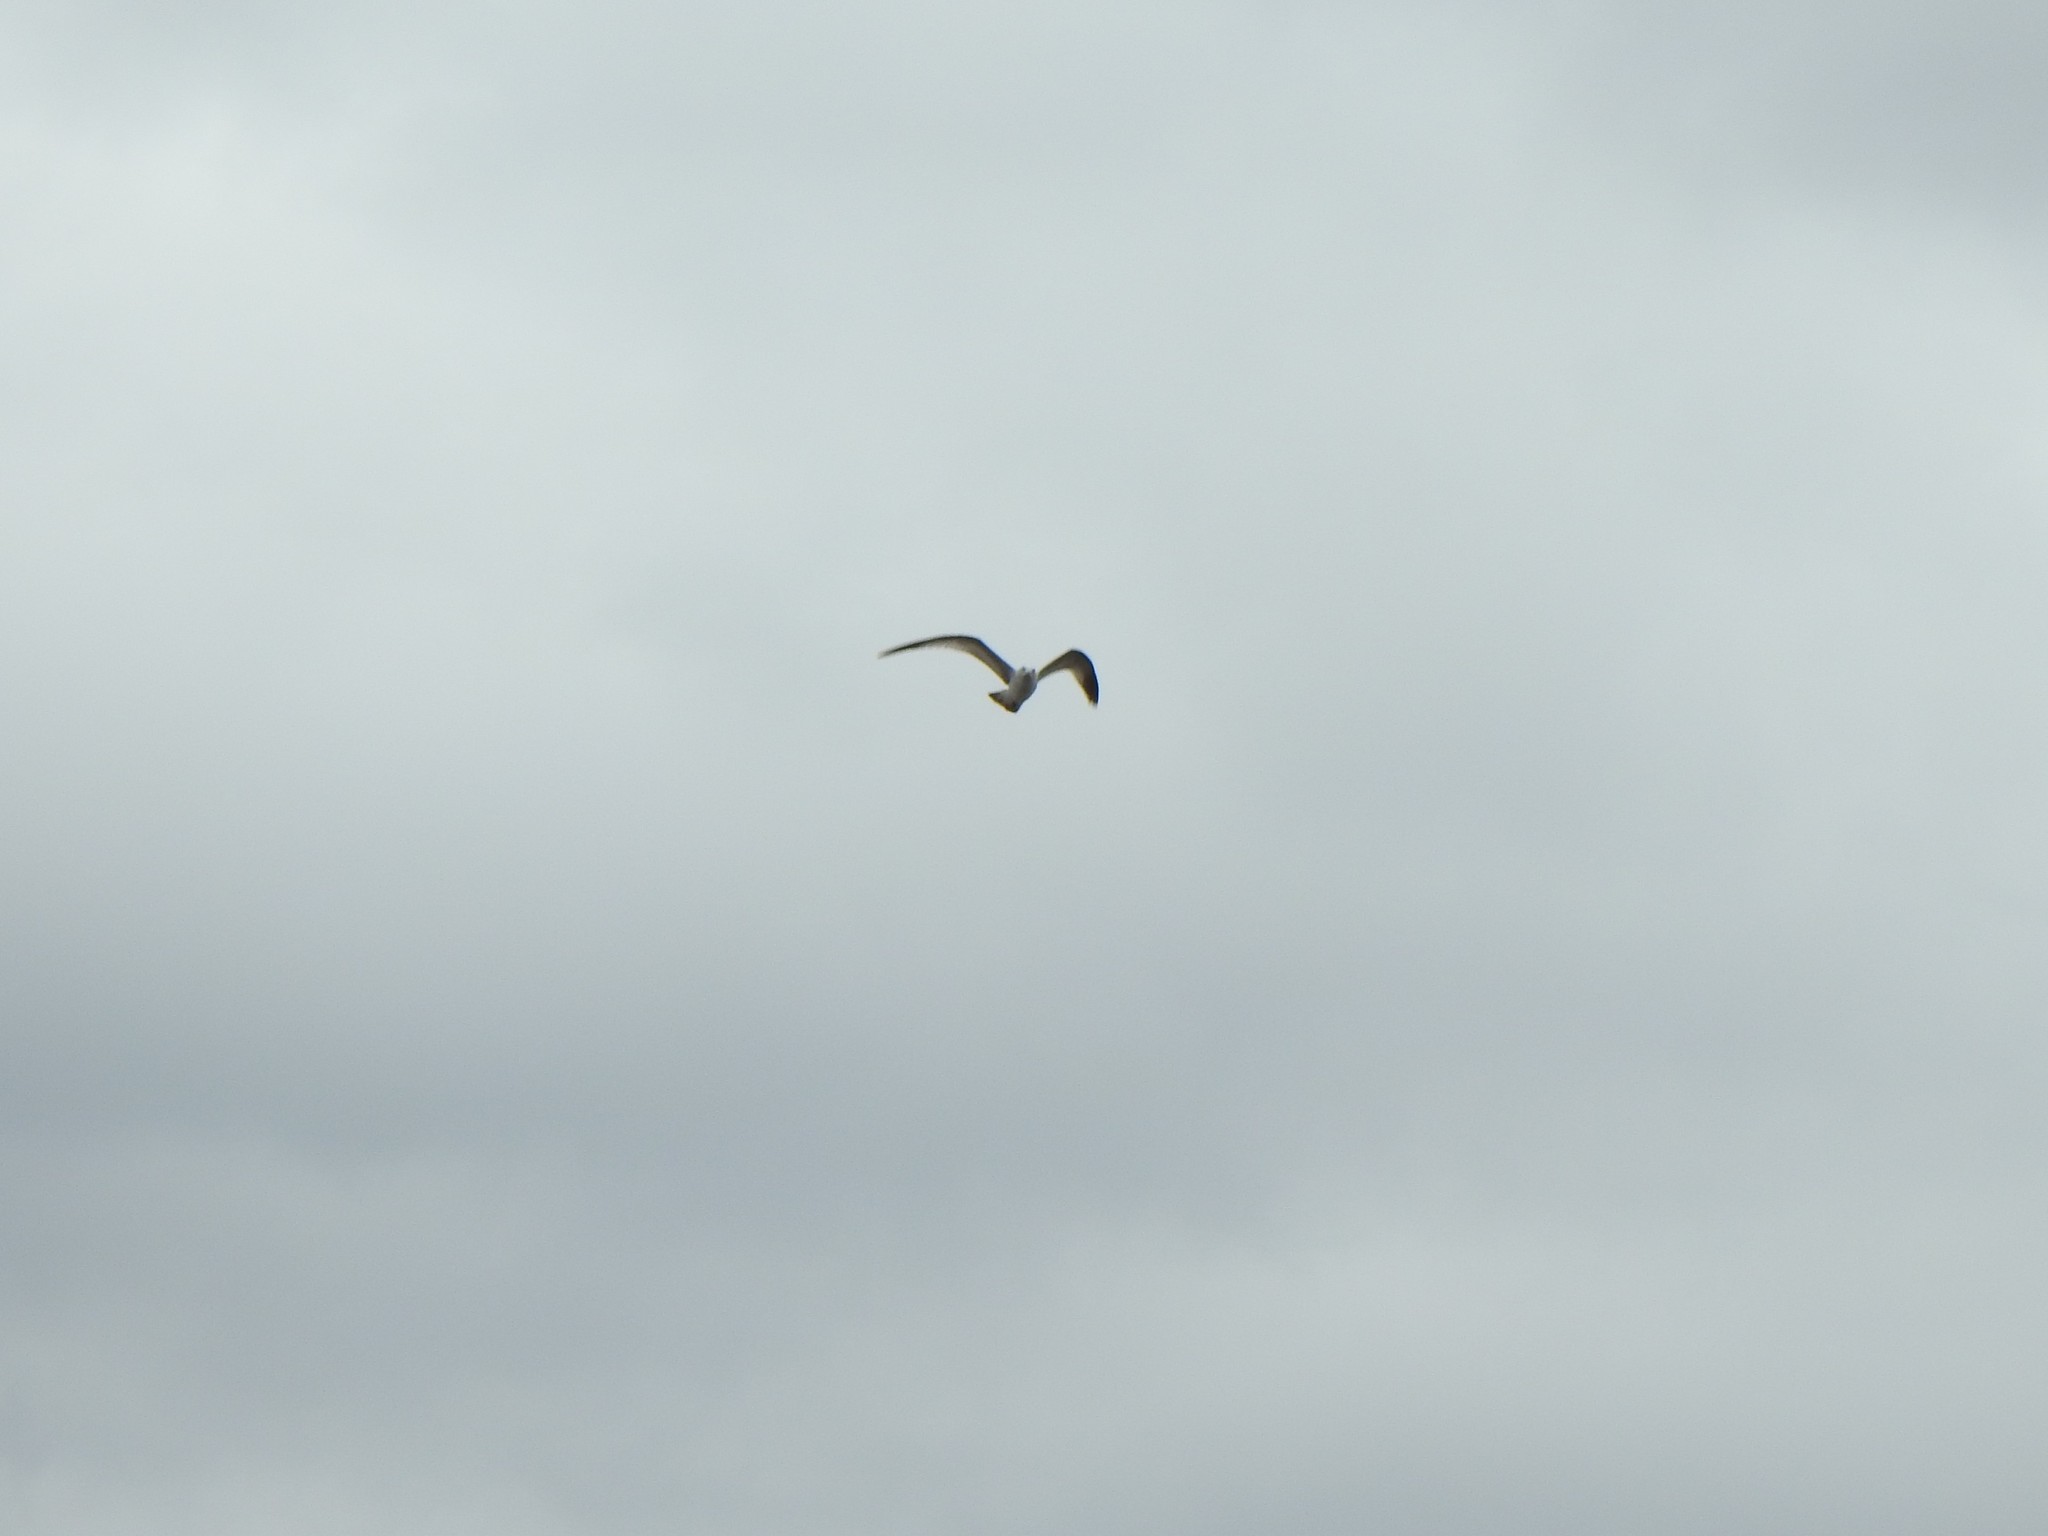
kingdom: Animalia
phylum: Chordata
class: Aves
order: Charadriiformes
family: Laridae
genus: Larus
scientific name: Larus delawarensis
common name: Ring-billed gull
